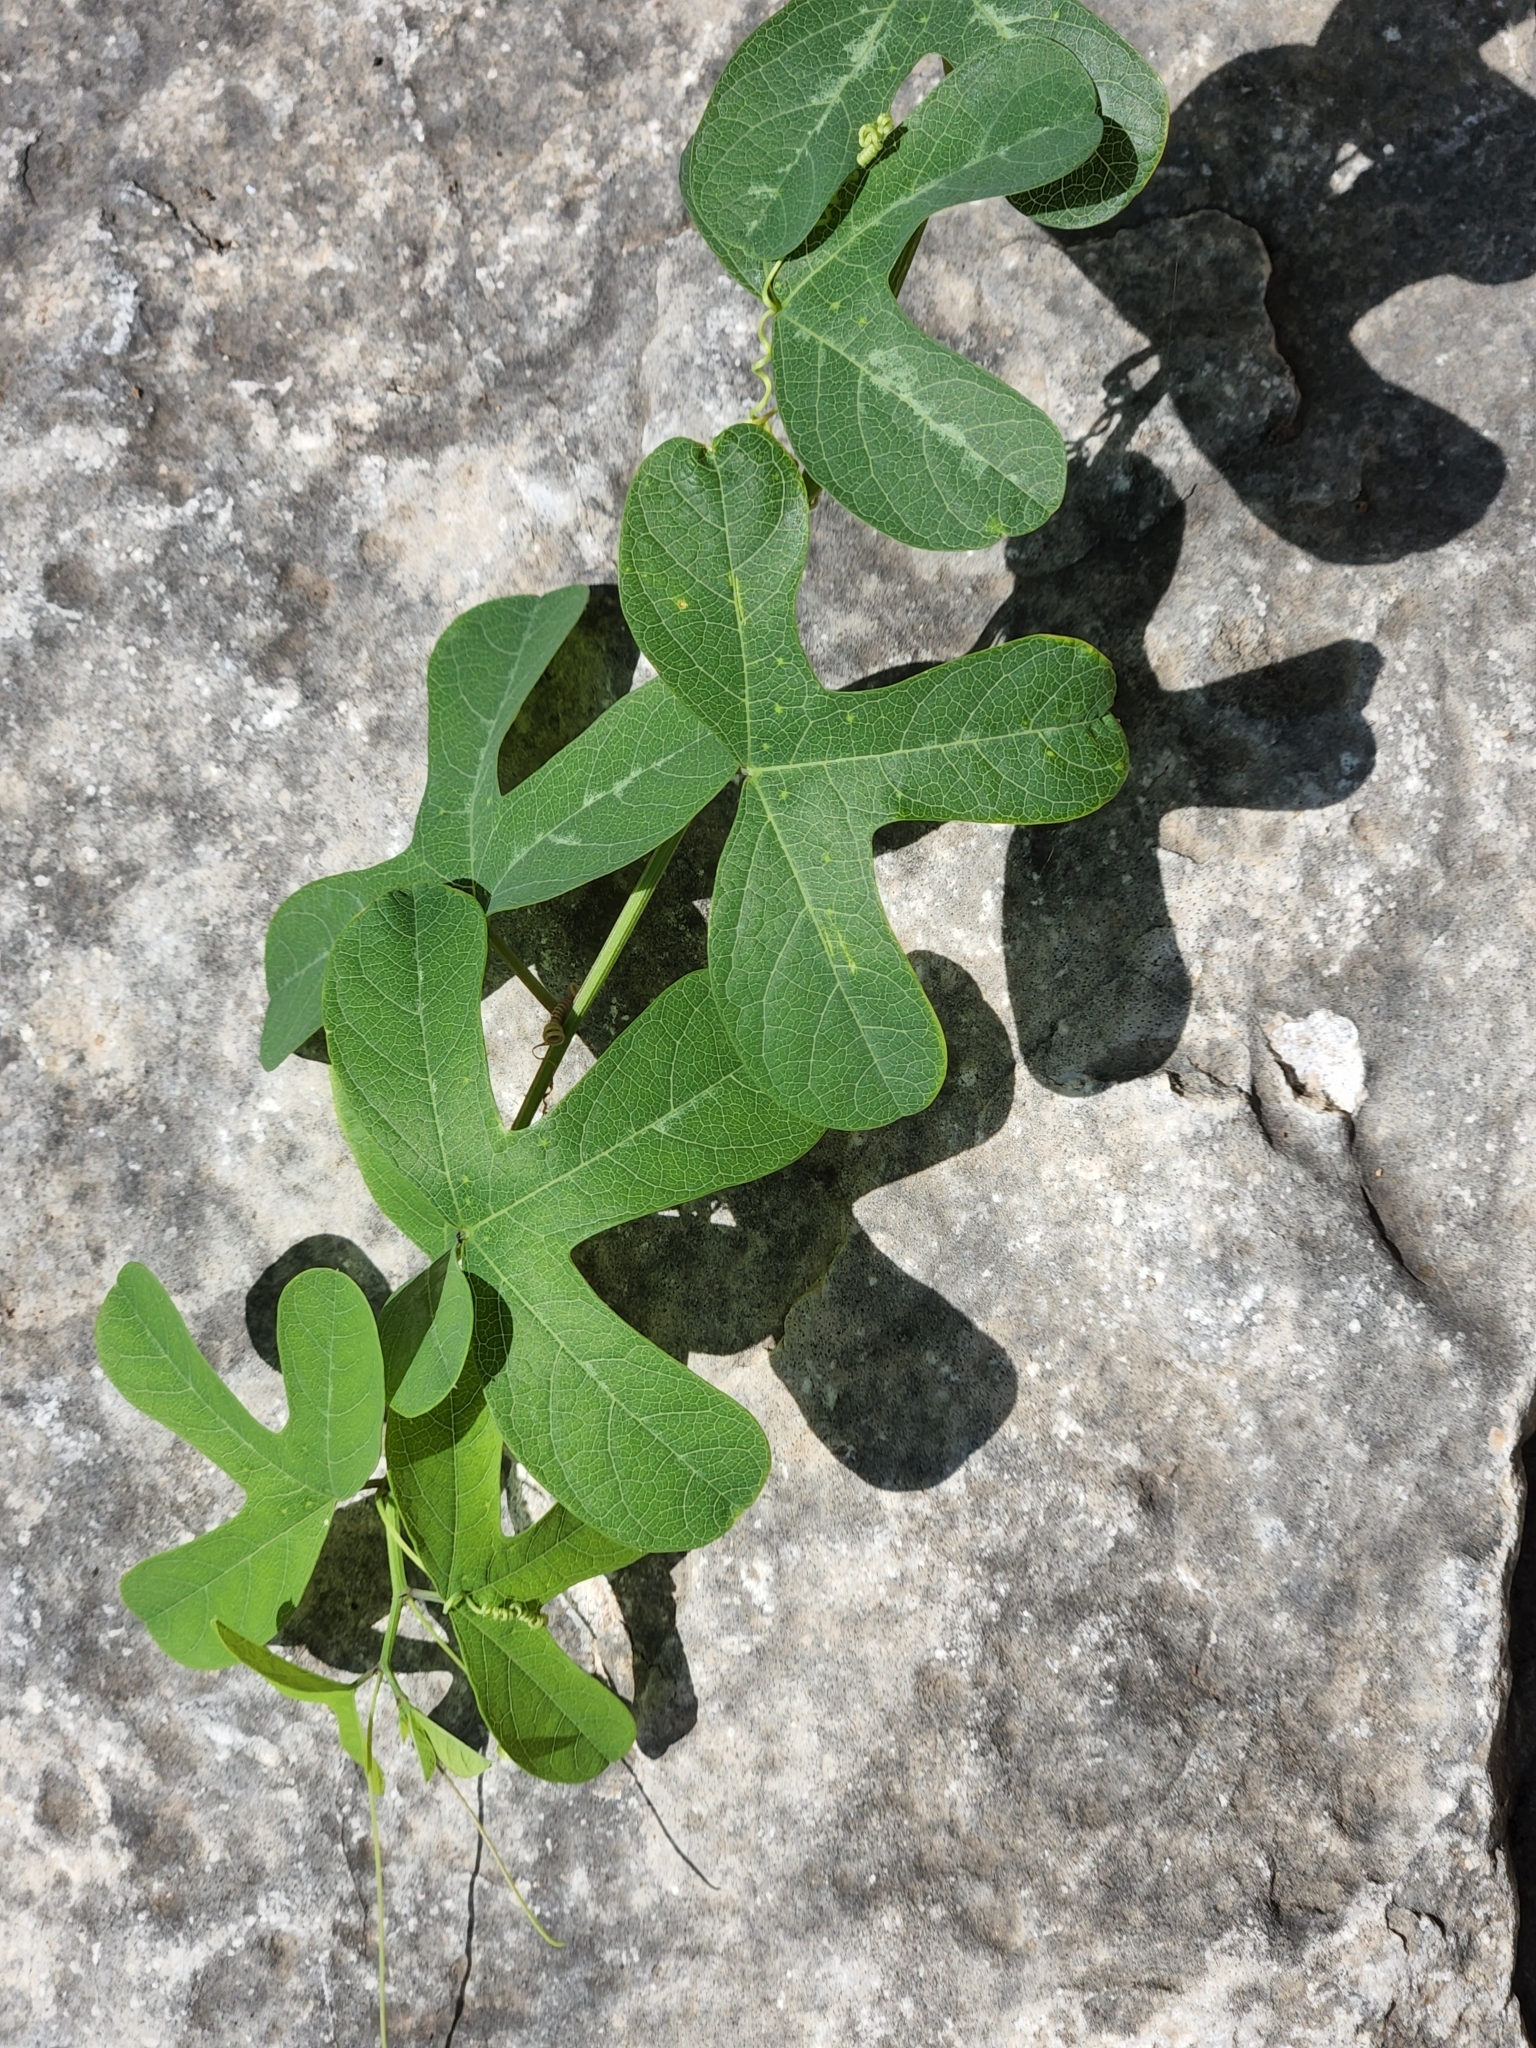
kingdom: Plantae
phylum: Tracheophyta
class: Magnoliopsida
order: Malpighiales
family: Passifloraceae
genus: Passiflora
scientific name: Passiflora affinis
